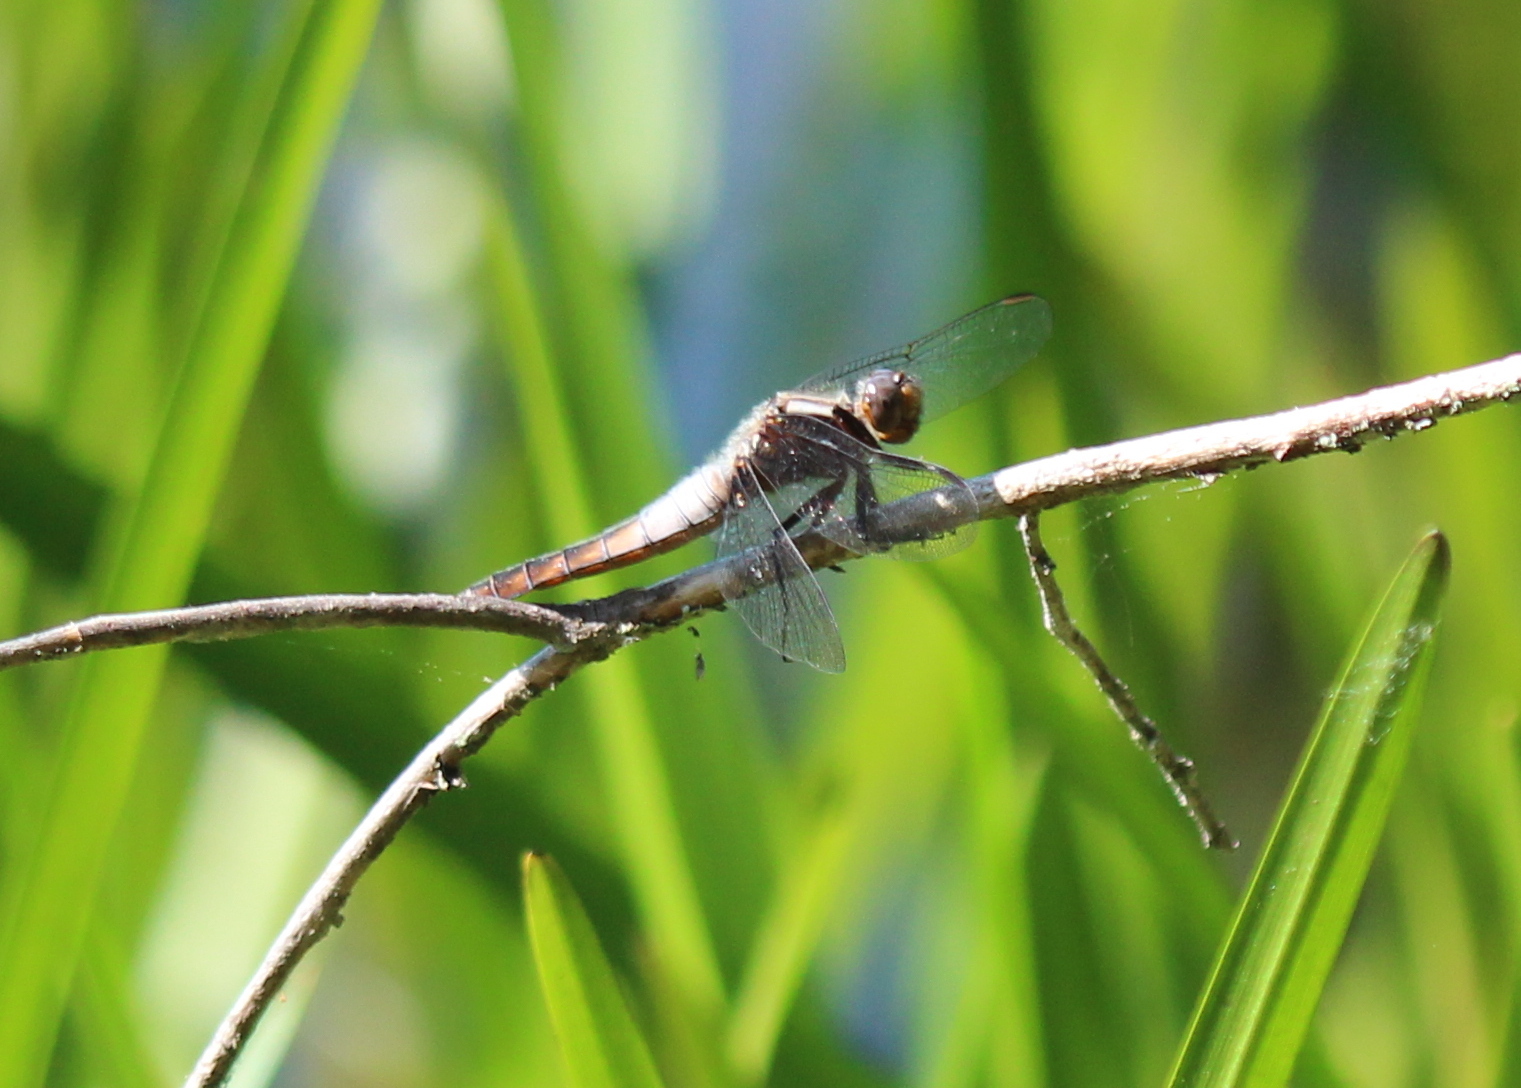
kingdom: Animalia
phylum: Arthropoda
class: Insecta
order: Odonata
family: Libellulidae
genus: Ladona
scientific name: Ladona julia
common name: Chalk-fronted corporal
